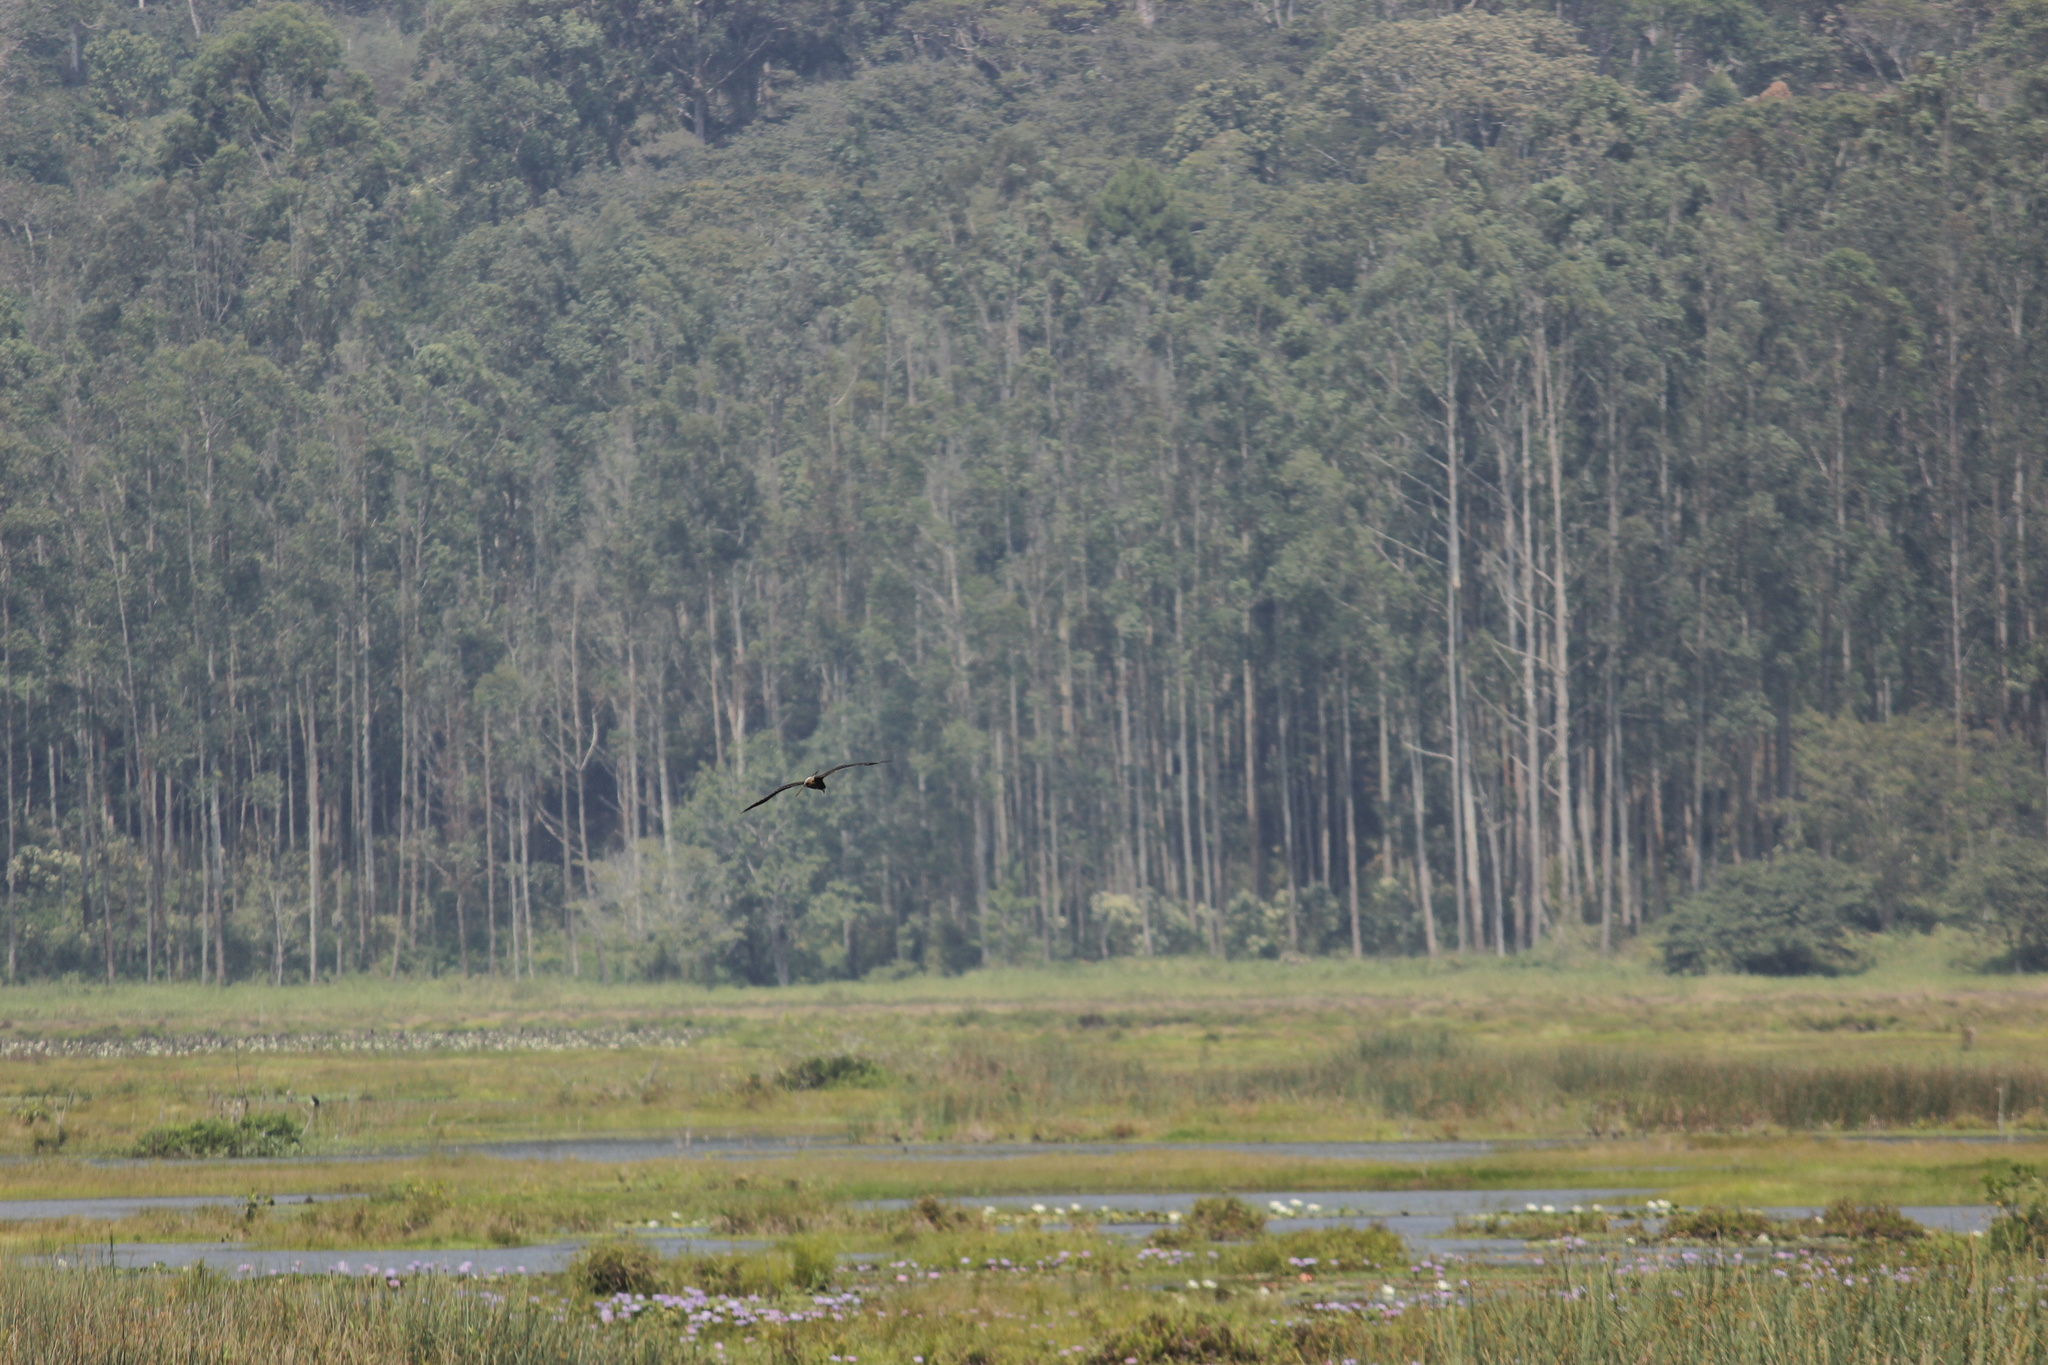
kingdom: Animalia
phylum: Chordata
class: Aves
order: Accipitriformes
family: Accipitridae
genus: Rostrhamus
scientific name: Rostrhamus sociabilis
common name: Snail kite
